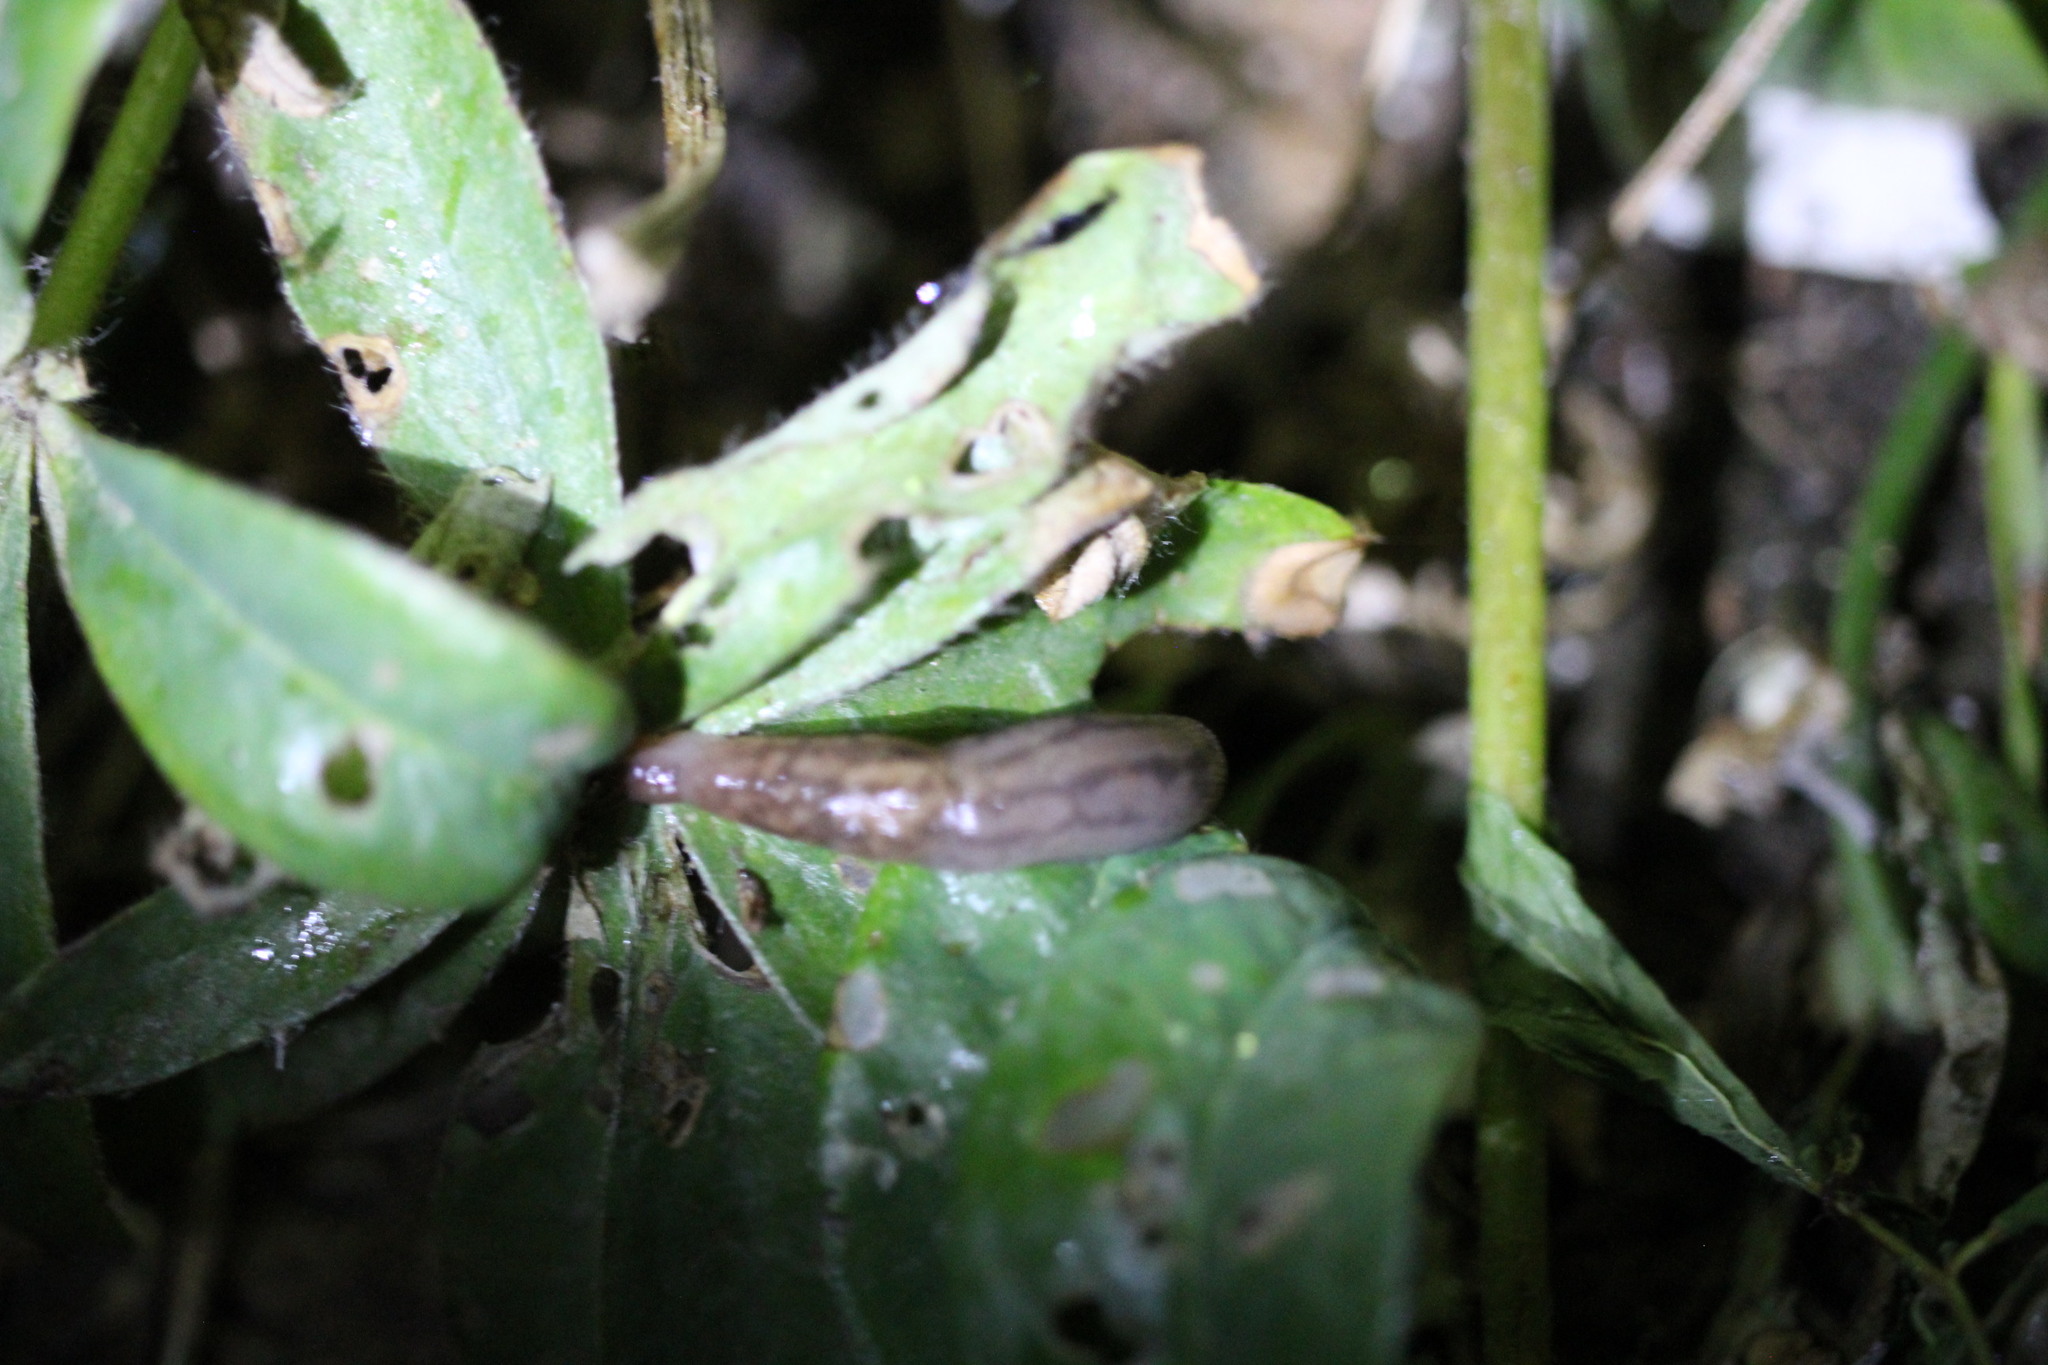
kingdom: Animalia
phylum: Mollusca
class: Gastropoda
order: Stylommatophora
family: Limacidae
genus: Ambigolimax
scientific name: Ambigolimax
